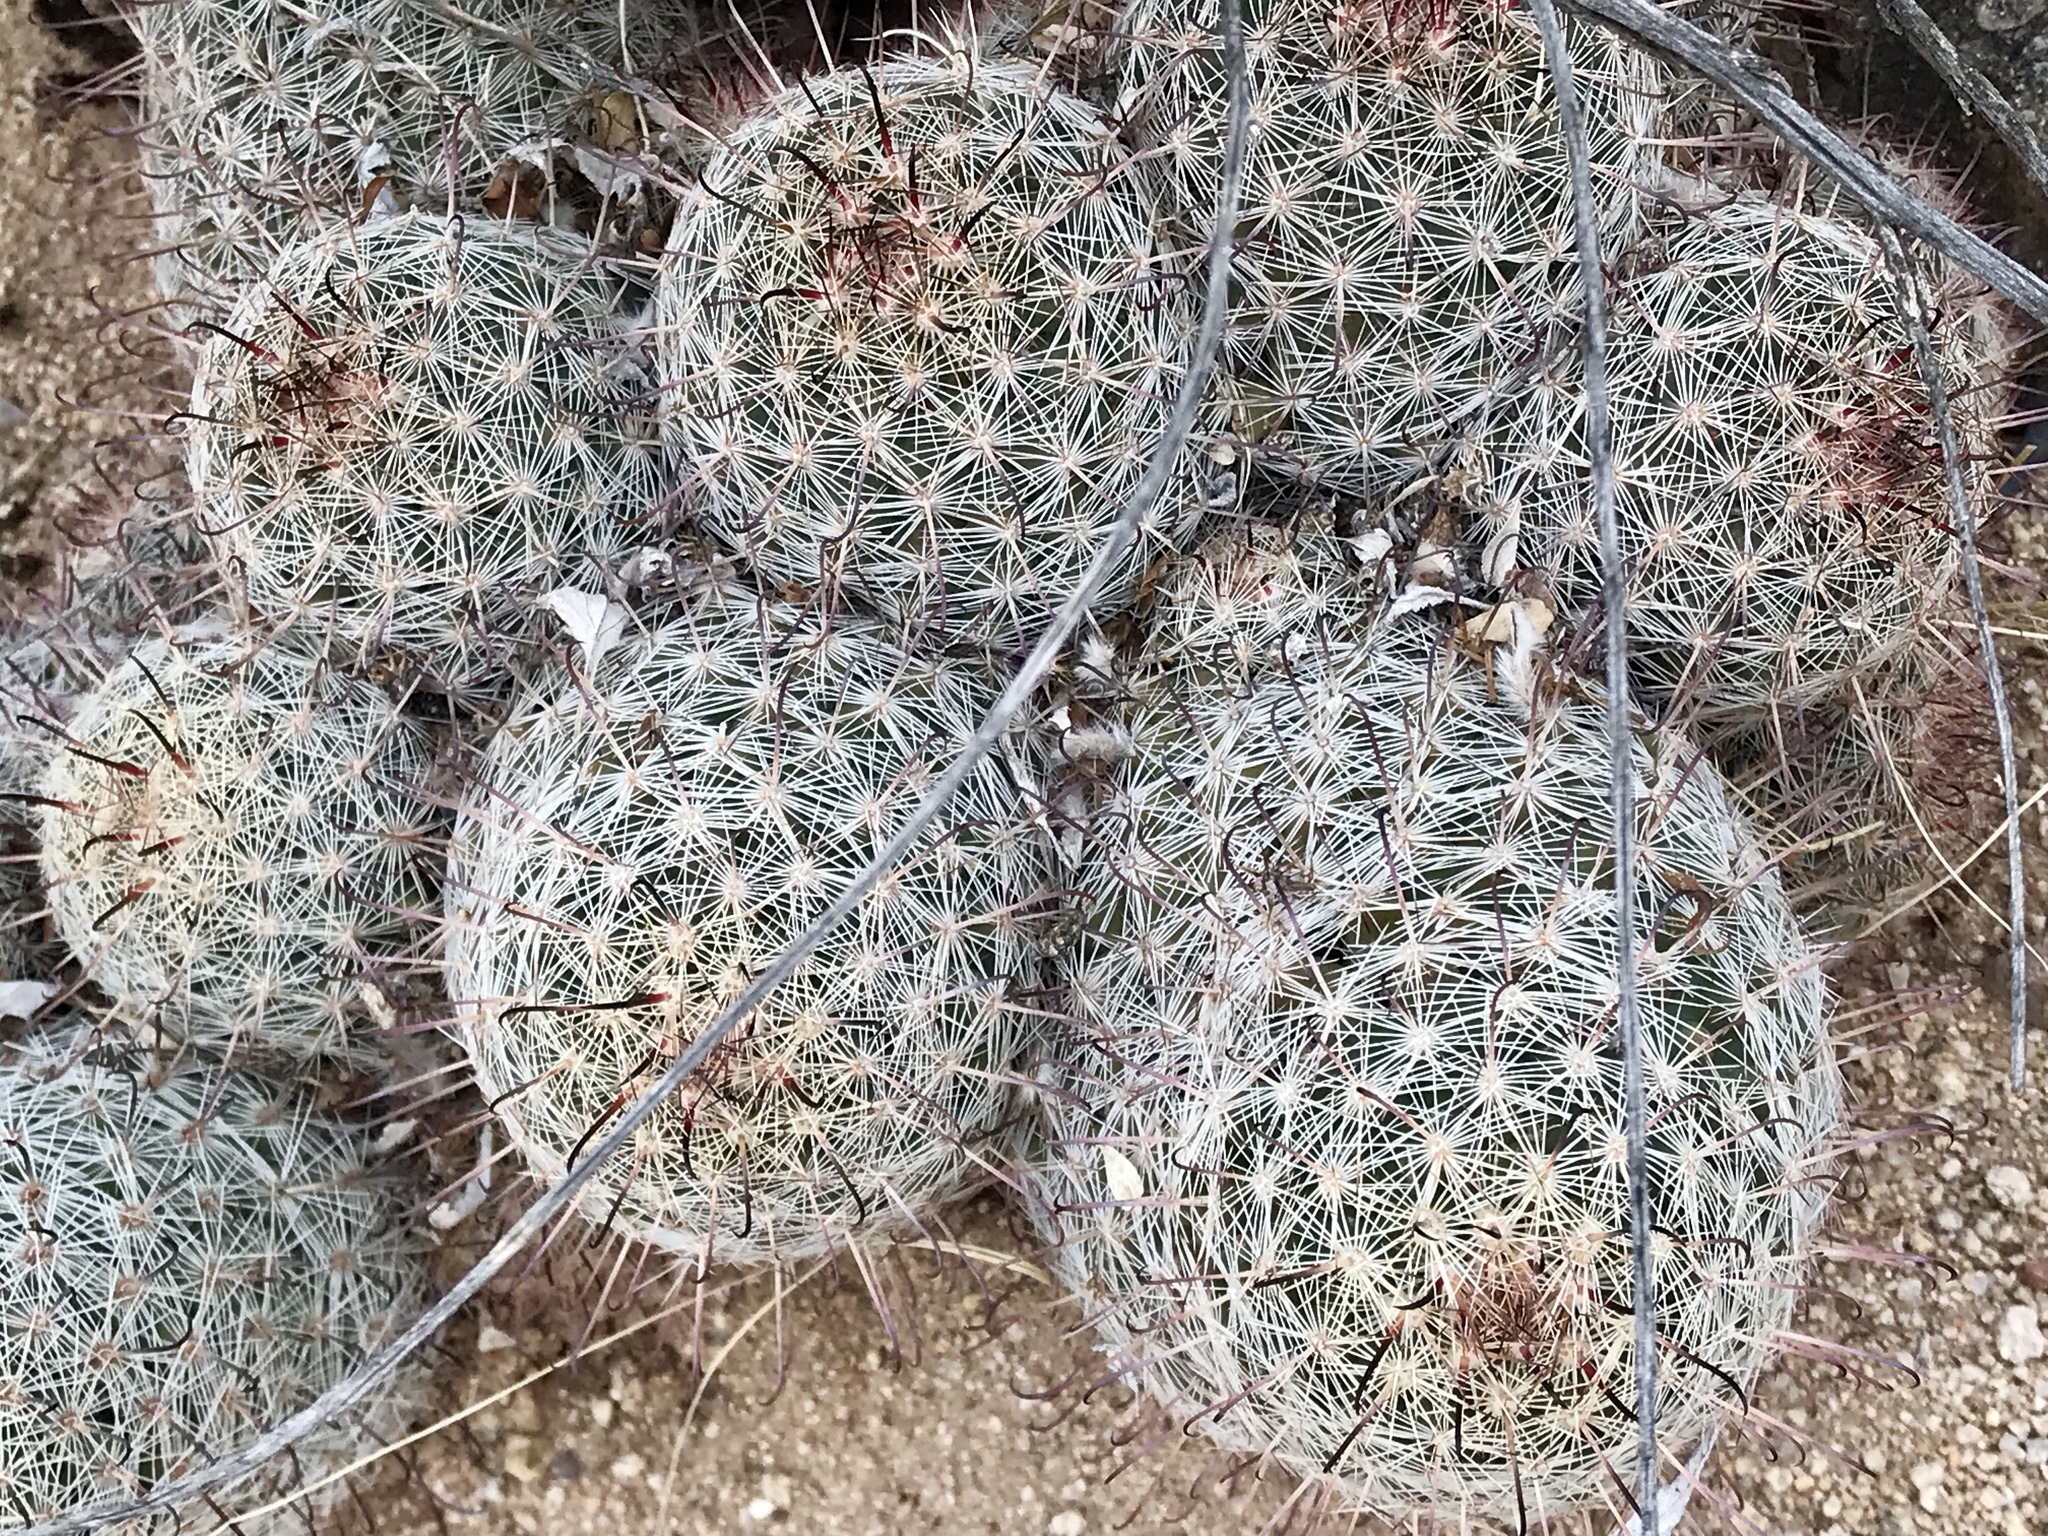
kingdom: Plantae
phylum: Tracheophyta
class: Magnoliopsida
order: Caryophyllales
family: Cactaceae
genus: Cochemiea
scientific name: Cochemiea grahamii
